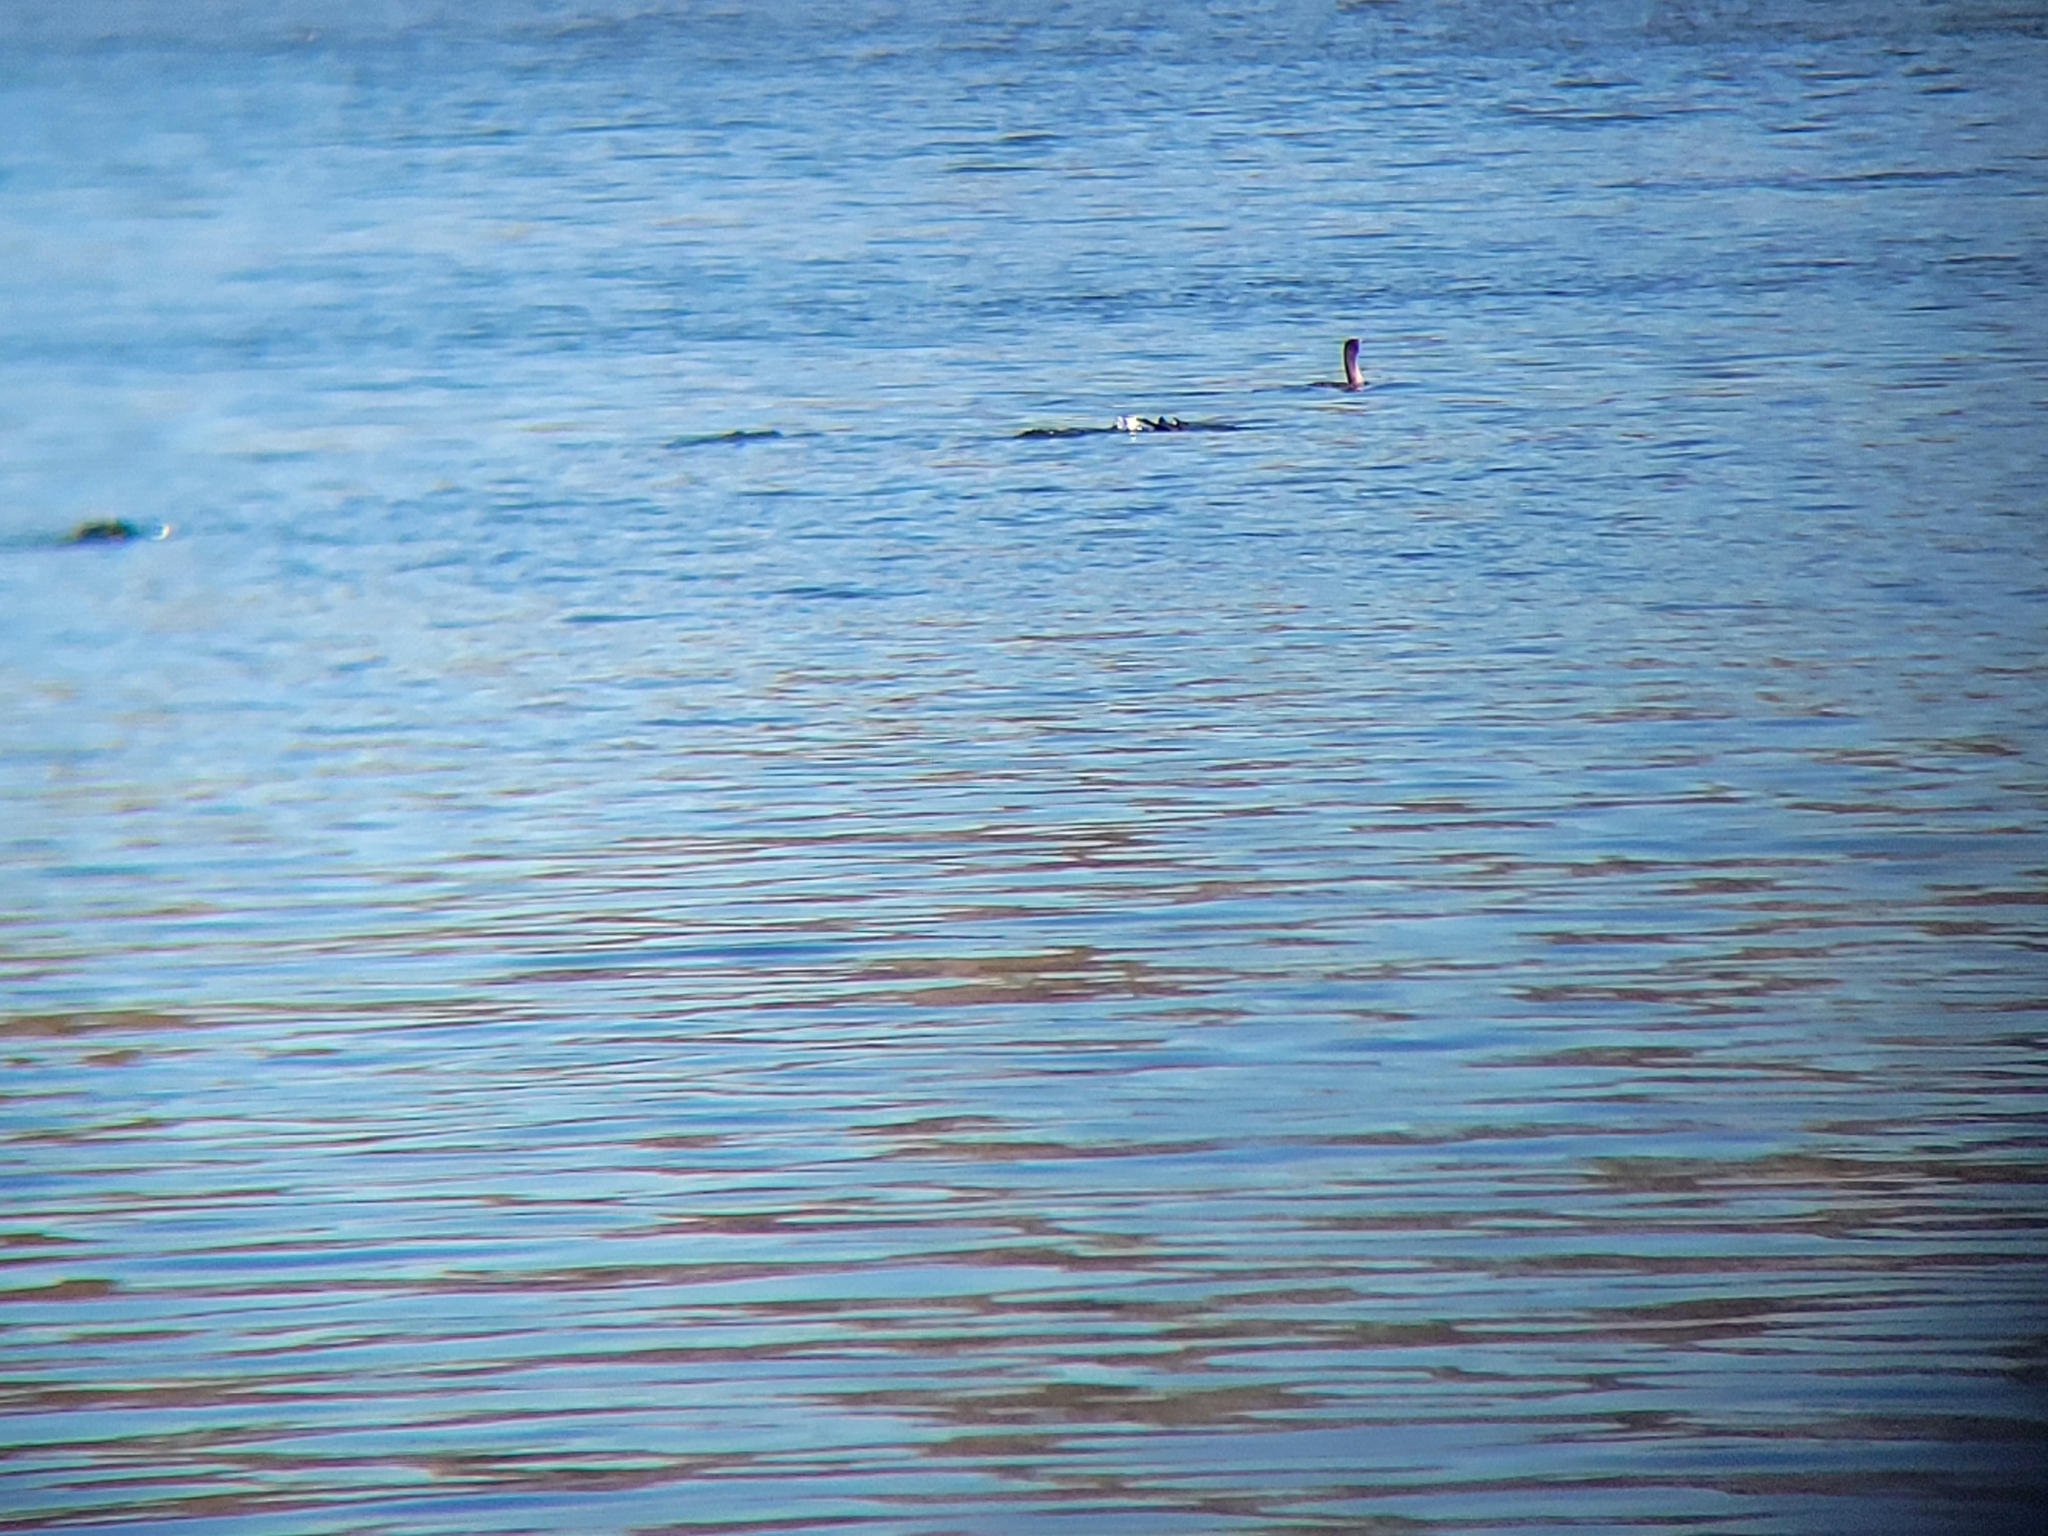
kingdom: Animalia
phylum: Chordata
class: Aves
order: Suliformes
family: Phalacrocoracidae
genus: Phalacrocorax
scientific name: Phalacrocorax auritus
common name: Double-crested cormorant
